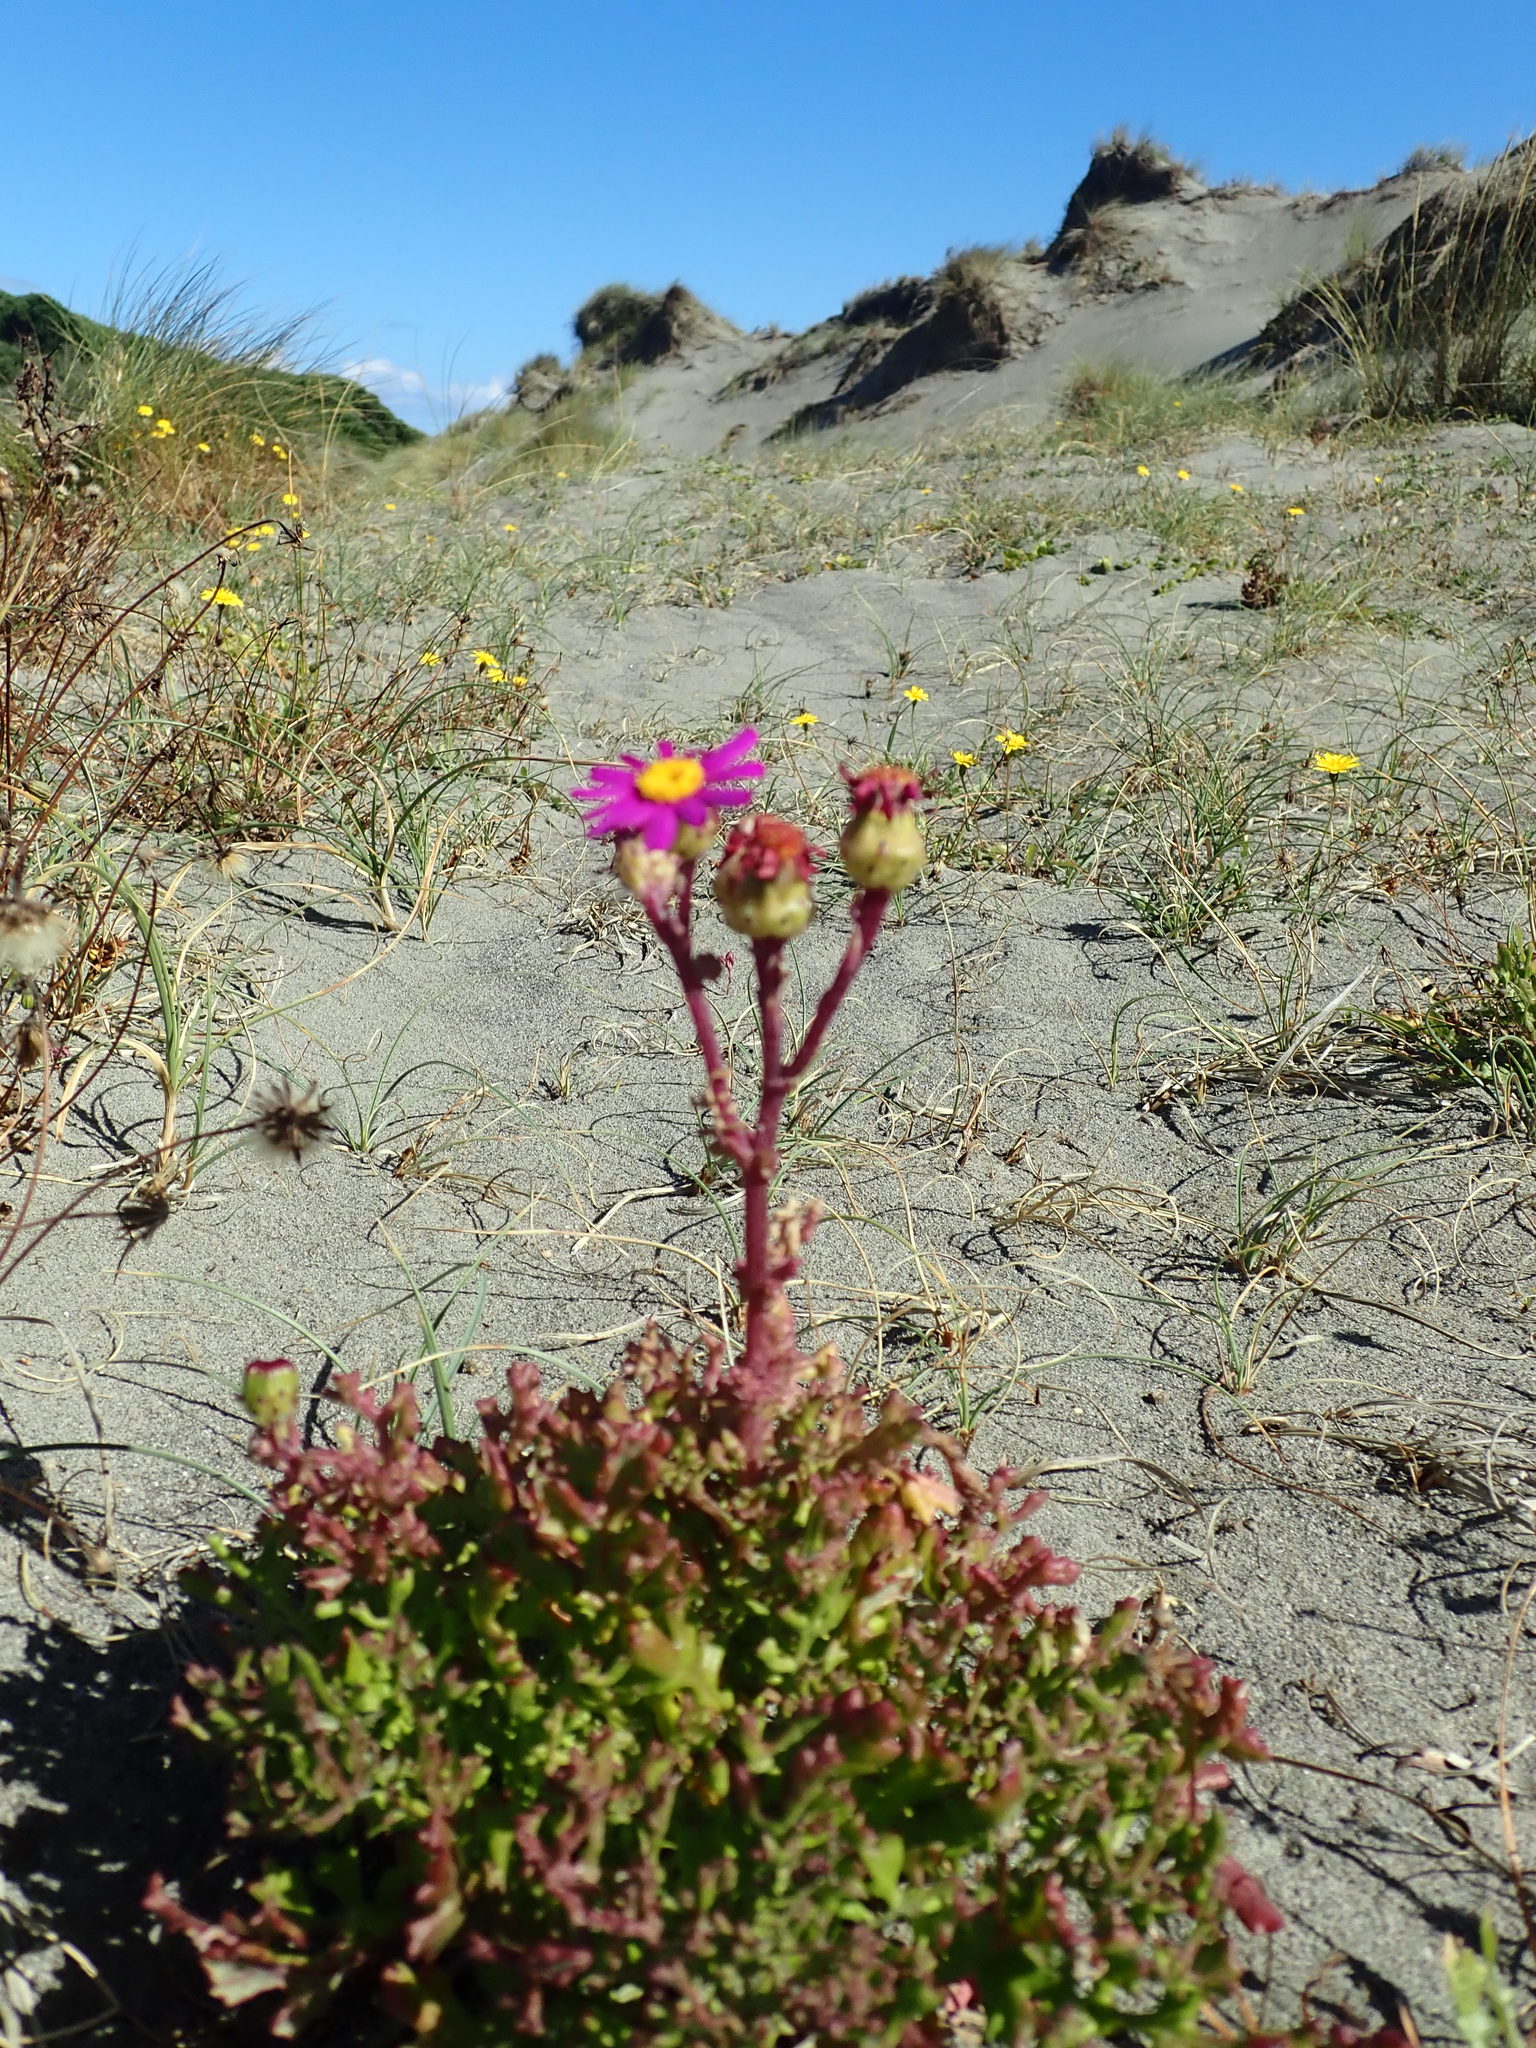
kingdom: Plantae
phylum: Tracheophyta
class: Magnoliopsida
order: Asterales
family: Asteraceae
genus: Senecio
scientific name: Senecio elegans
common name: Purple groundsel
